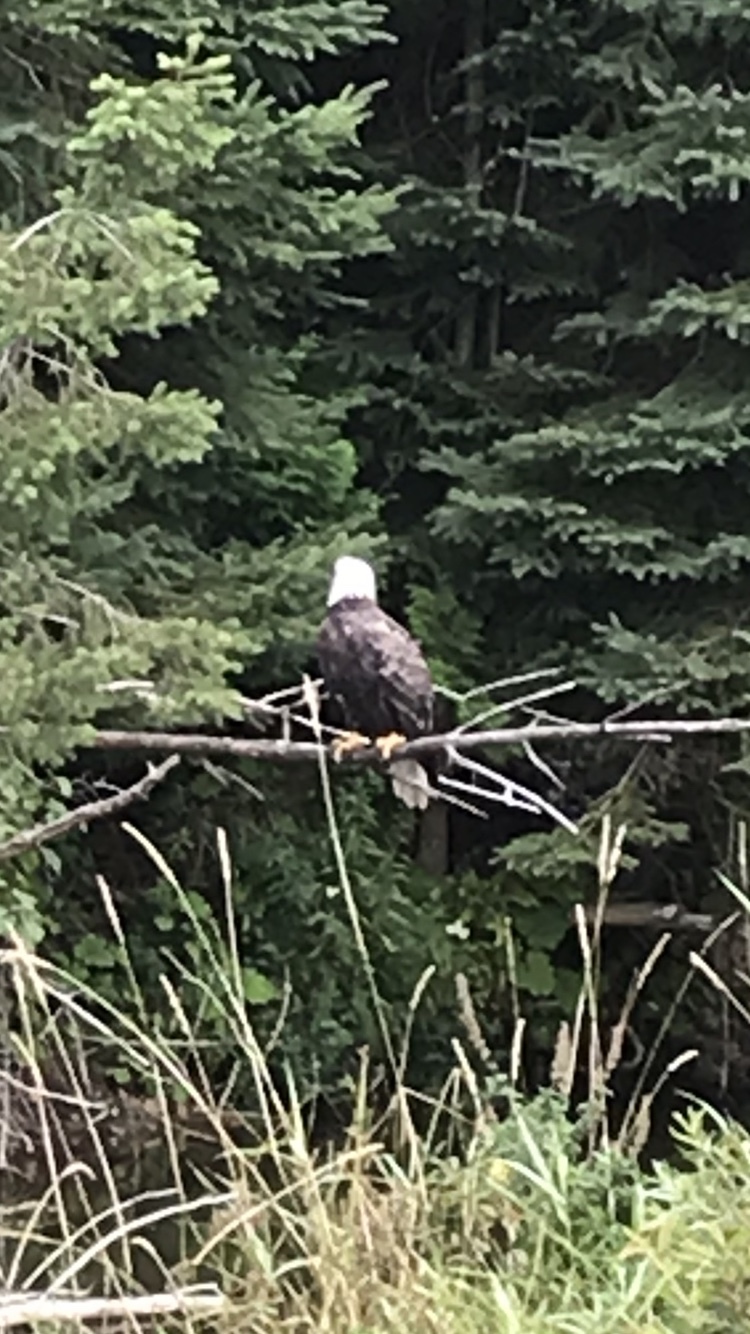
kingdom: Animalia
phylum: Chordata
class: Aves
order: Accipitriformes
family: Accipitridae
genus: Haliaeetus
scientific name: Haliaeetus leucocephalus
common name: Bald eagle
